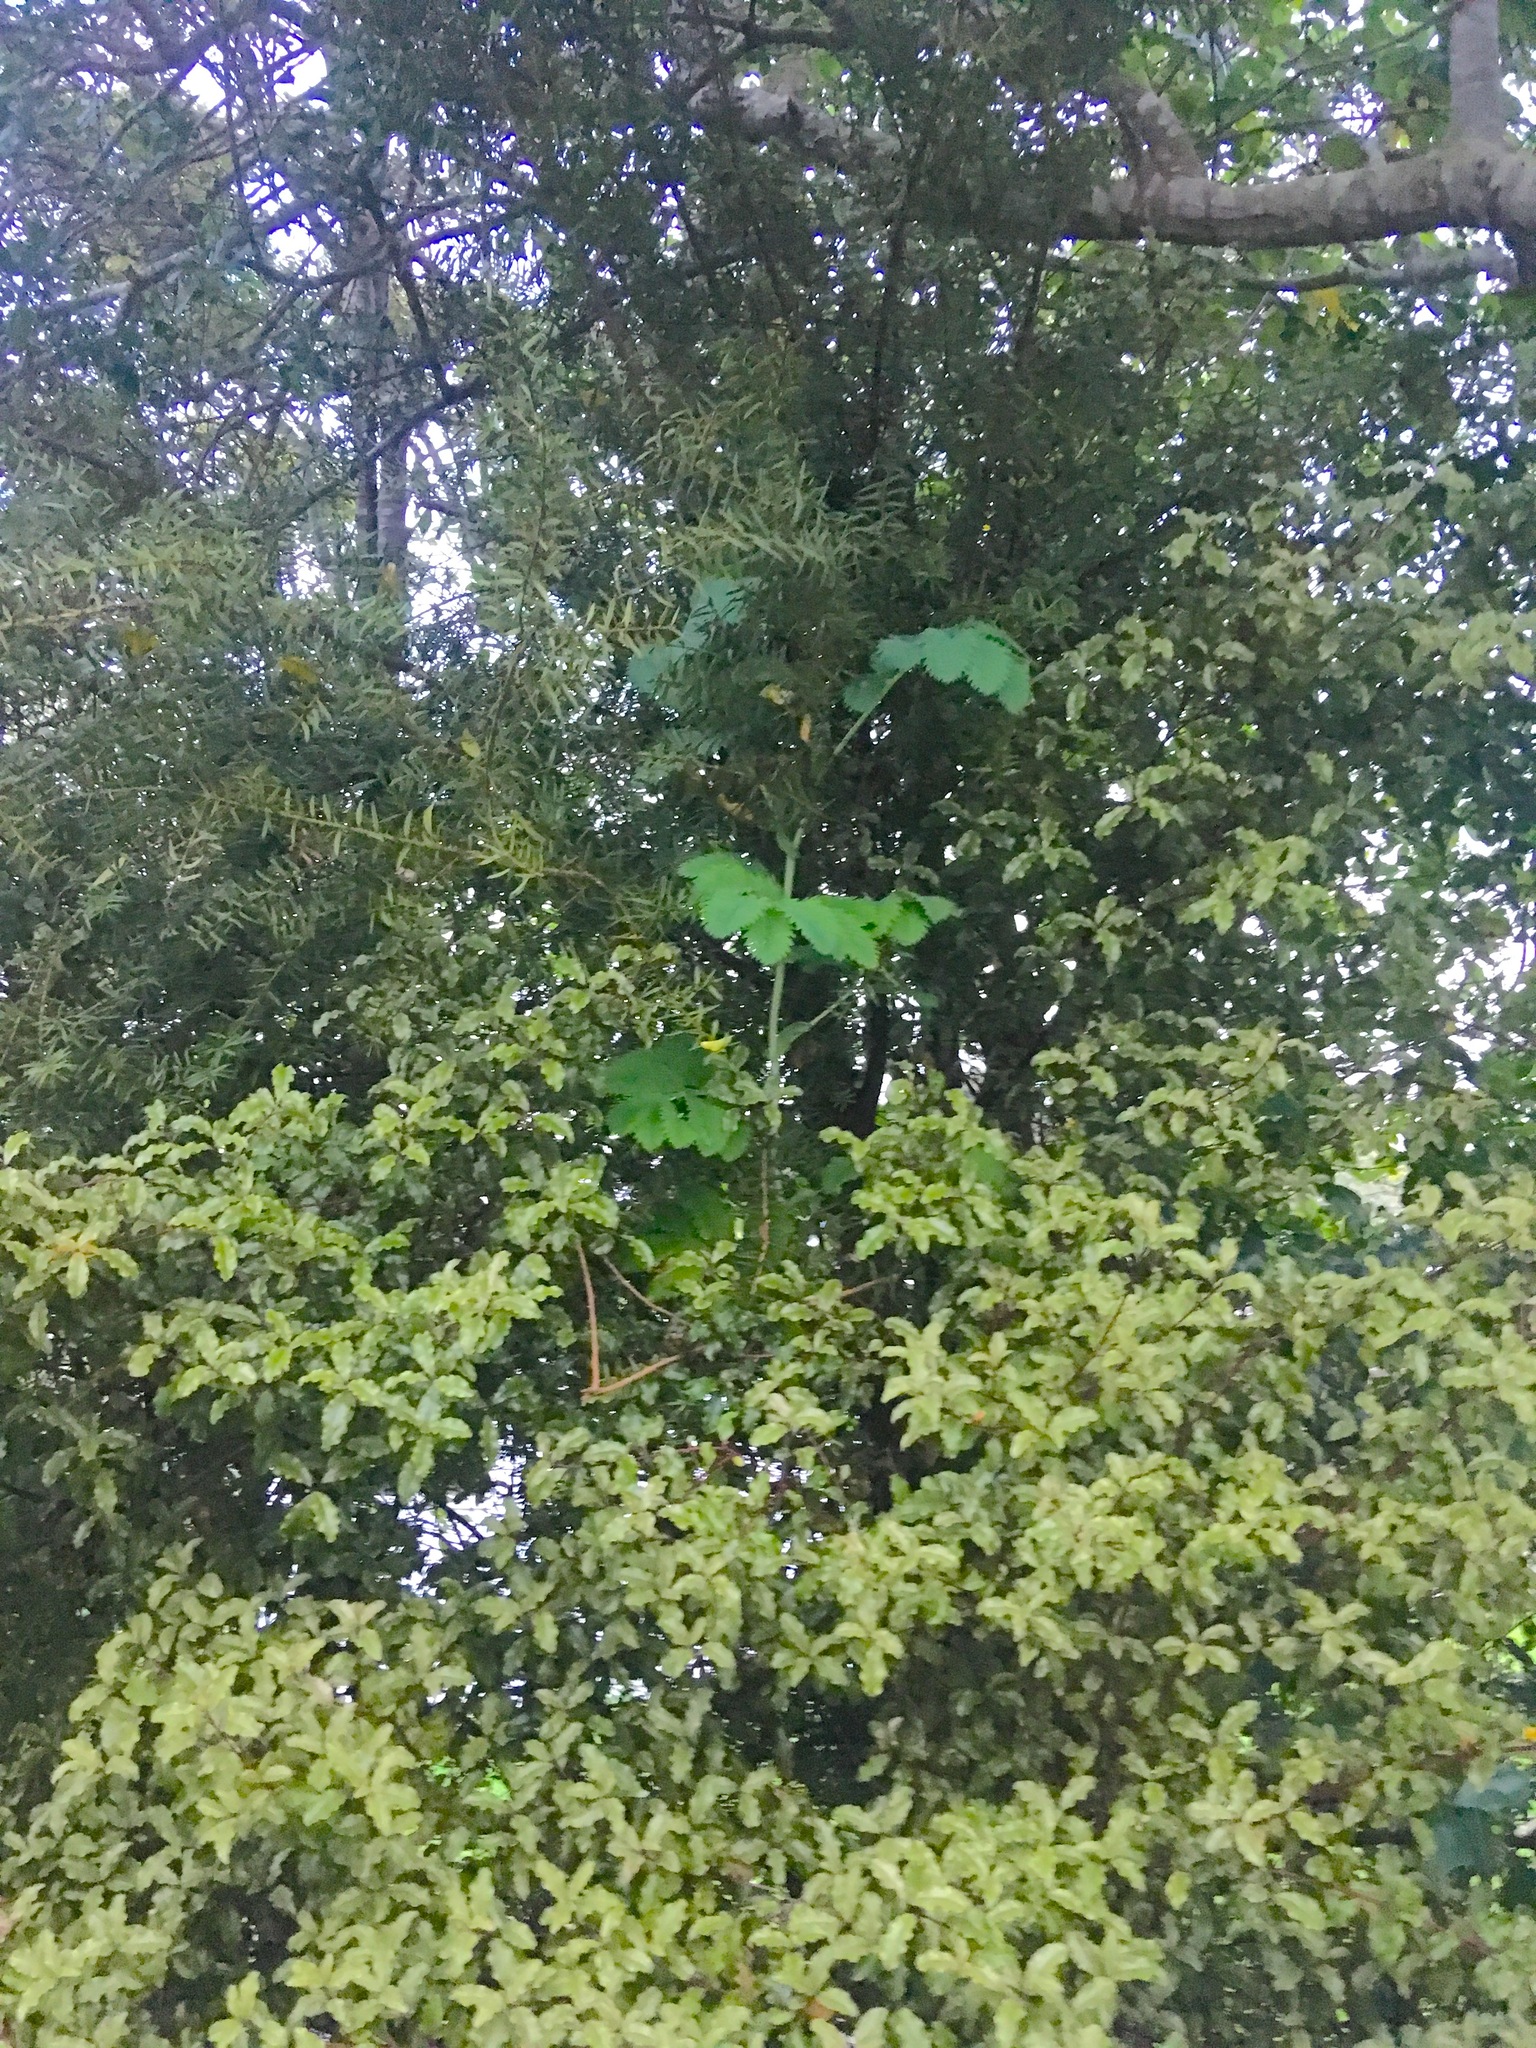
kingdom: Plantae
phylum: Tracheophyta
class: Magnoliopsida
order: Geraniales
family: Melianthaceae
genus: Melianthus
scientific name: Melianthus major
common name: Honey-flower
